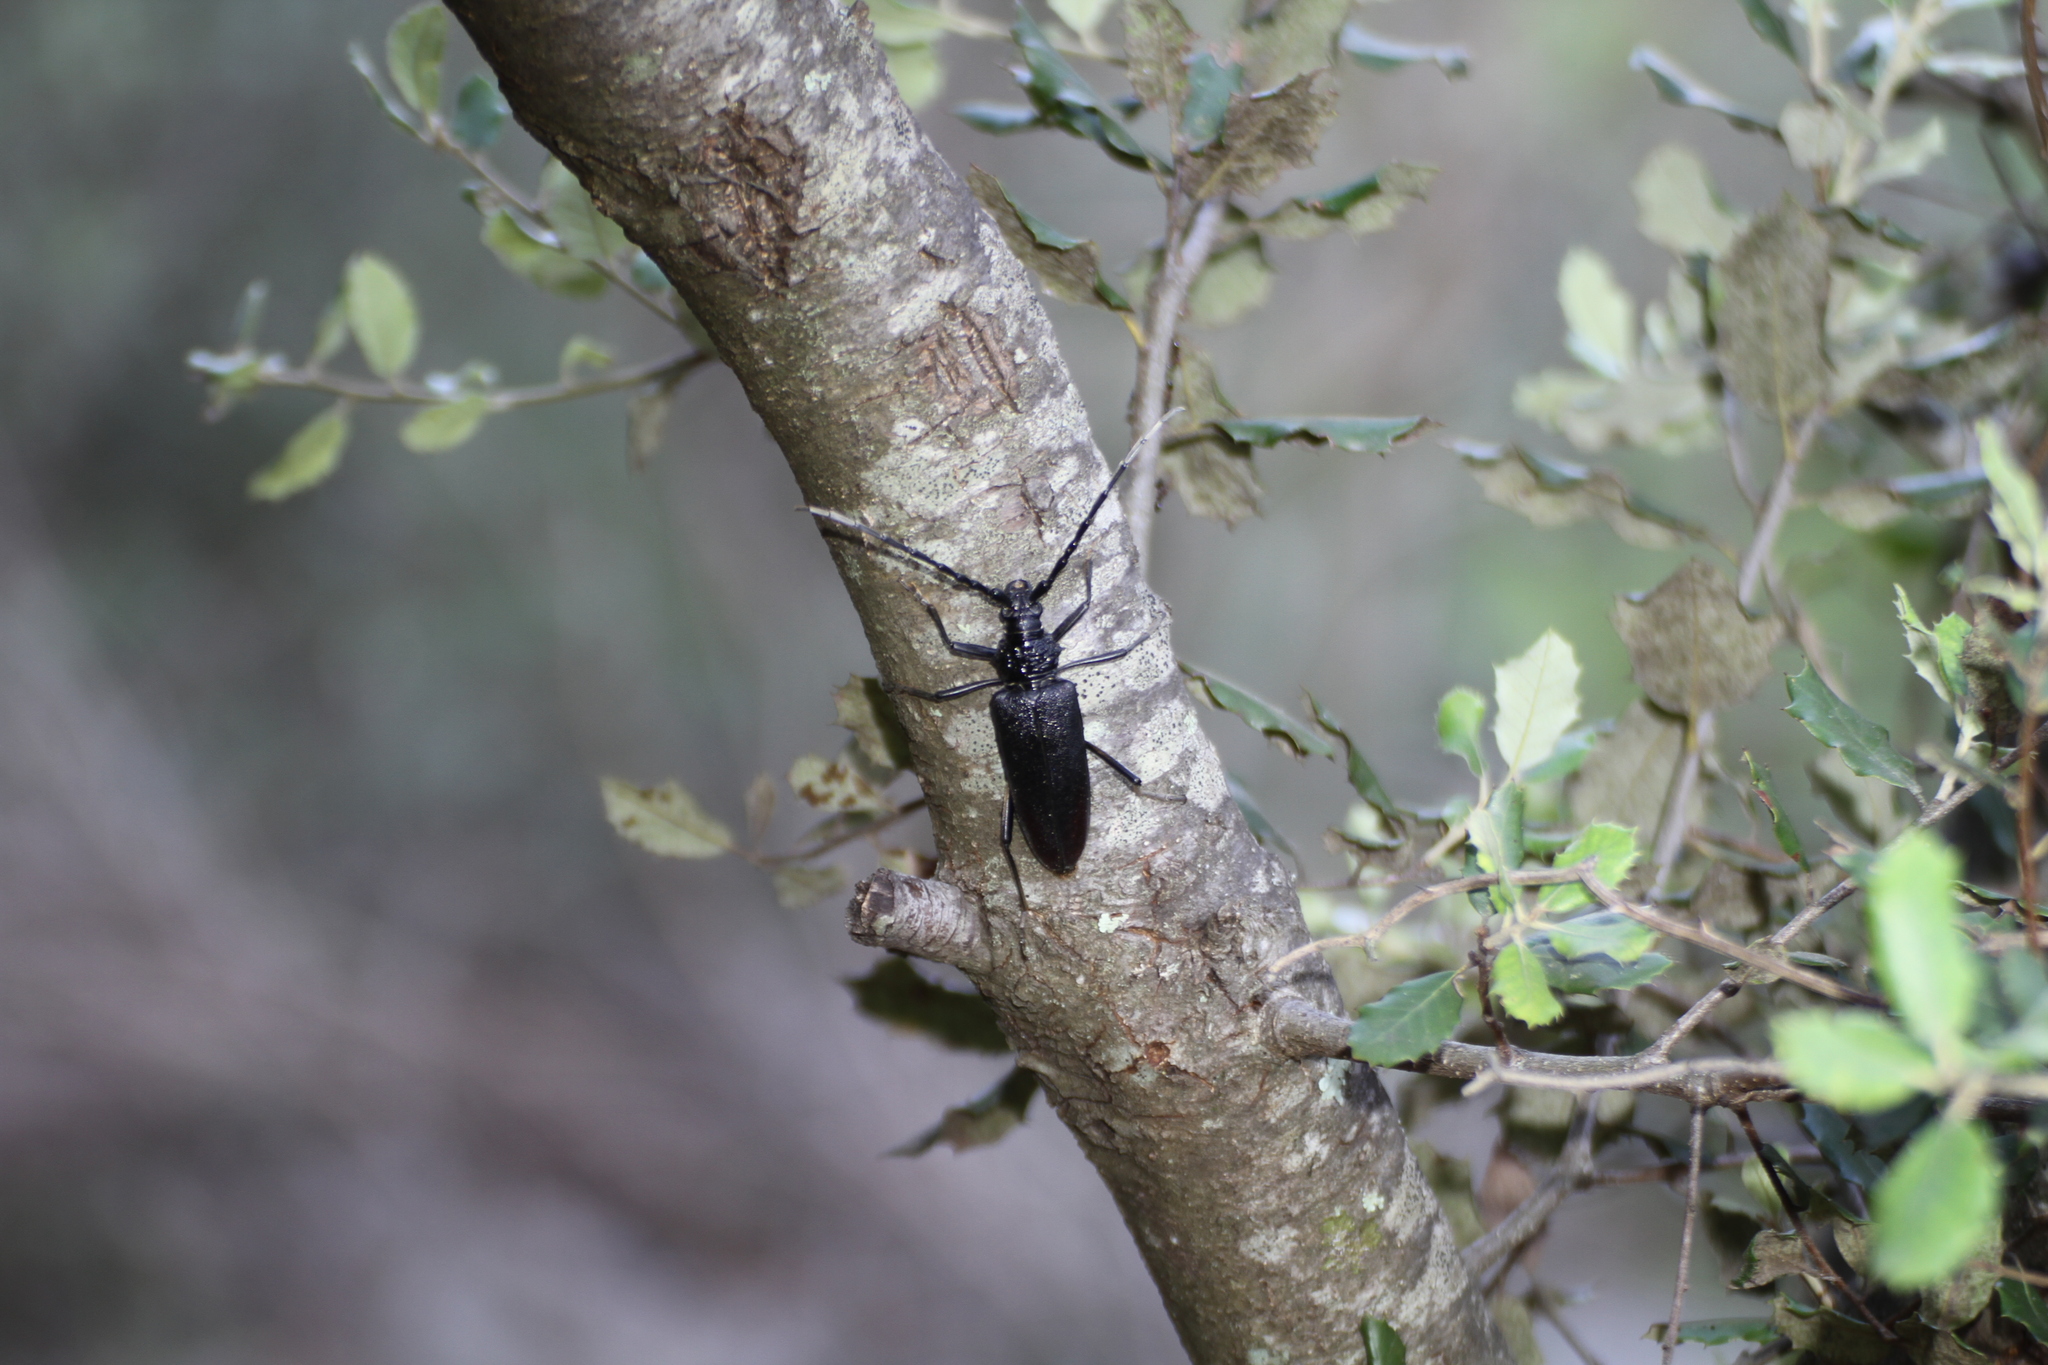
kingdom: Animalia
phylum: Arthropoda
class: Insecta
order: Coleoptera
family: Cerambycidae
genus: Cerambyx
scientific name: Cerambyx cerdo
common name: Cerambyx longicorn
